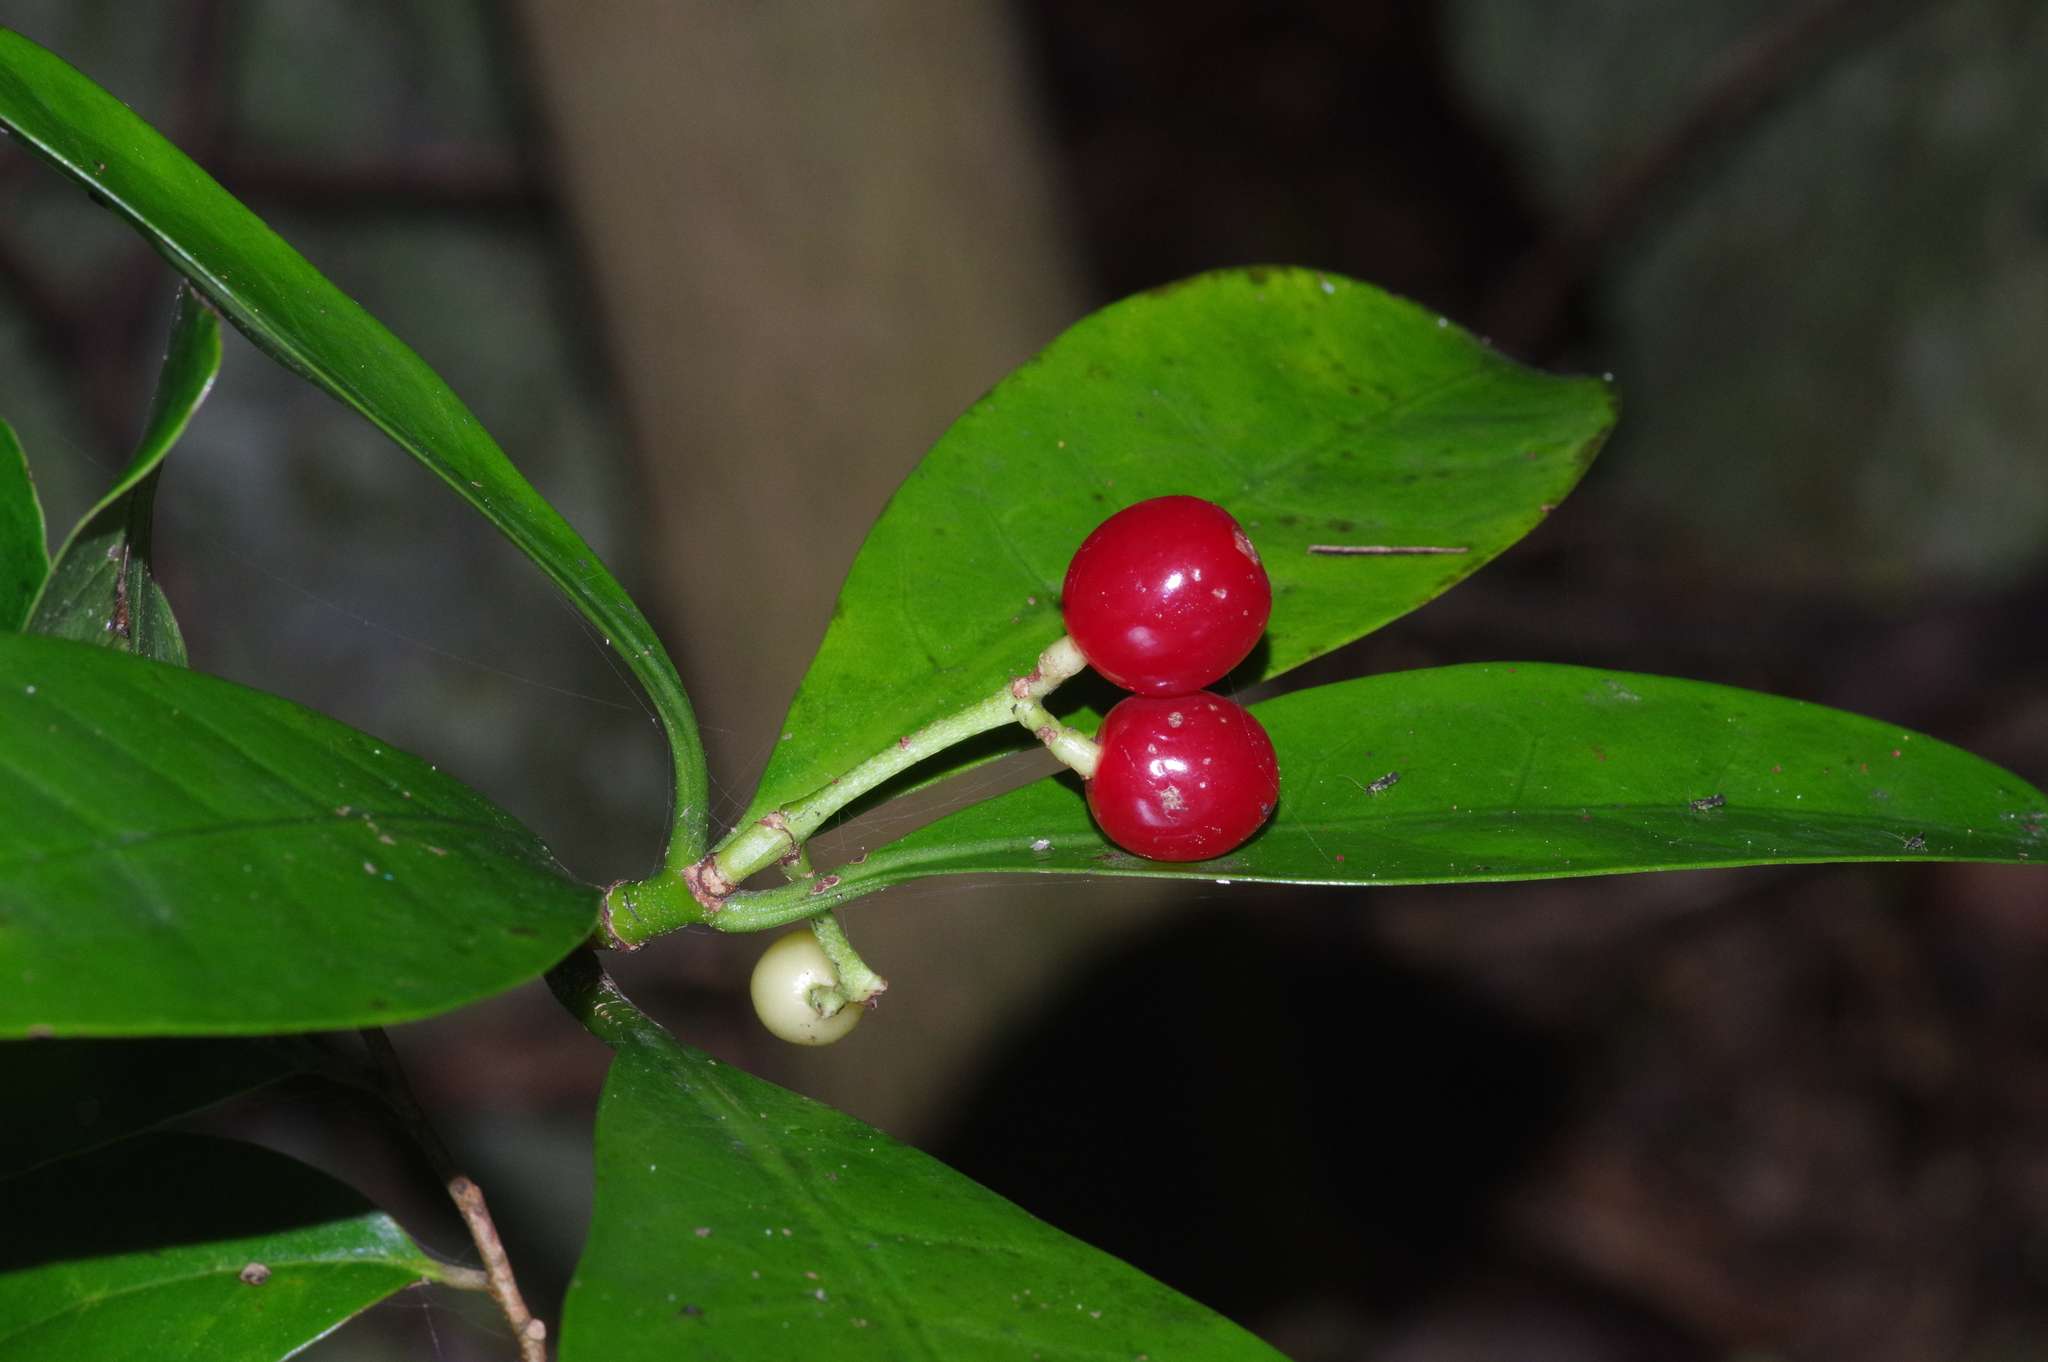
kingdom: Plantae
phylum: Tracheophyta
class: Magnoliopsida
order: Gentianales
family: Rubiaceae
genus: Psychotria
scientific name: Psychotria asiatica
